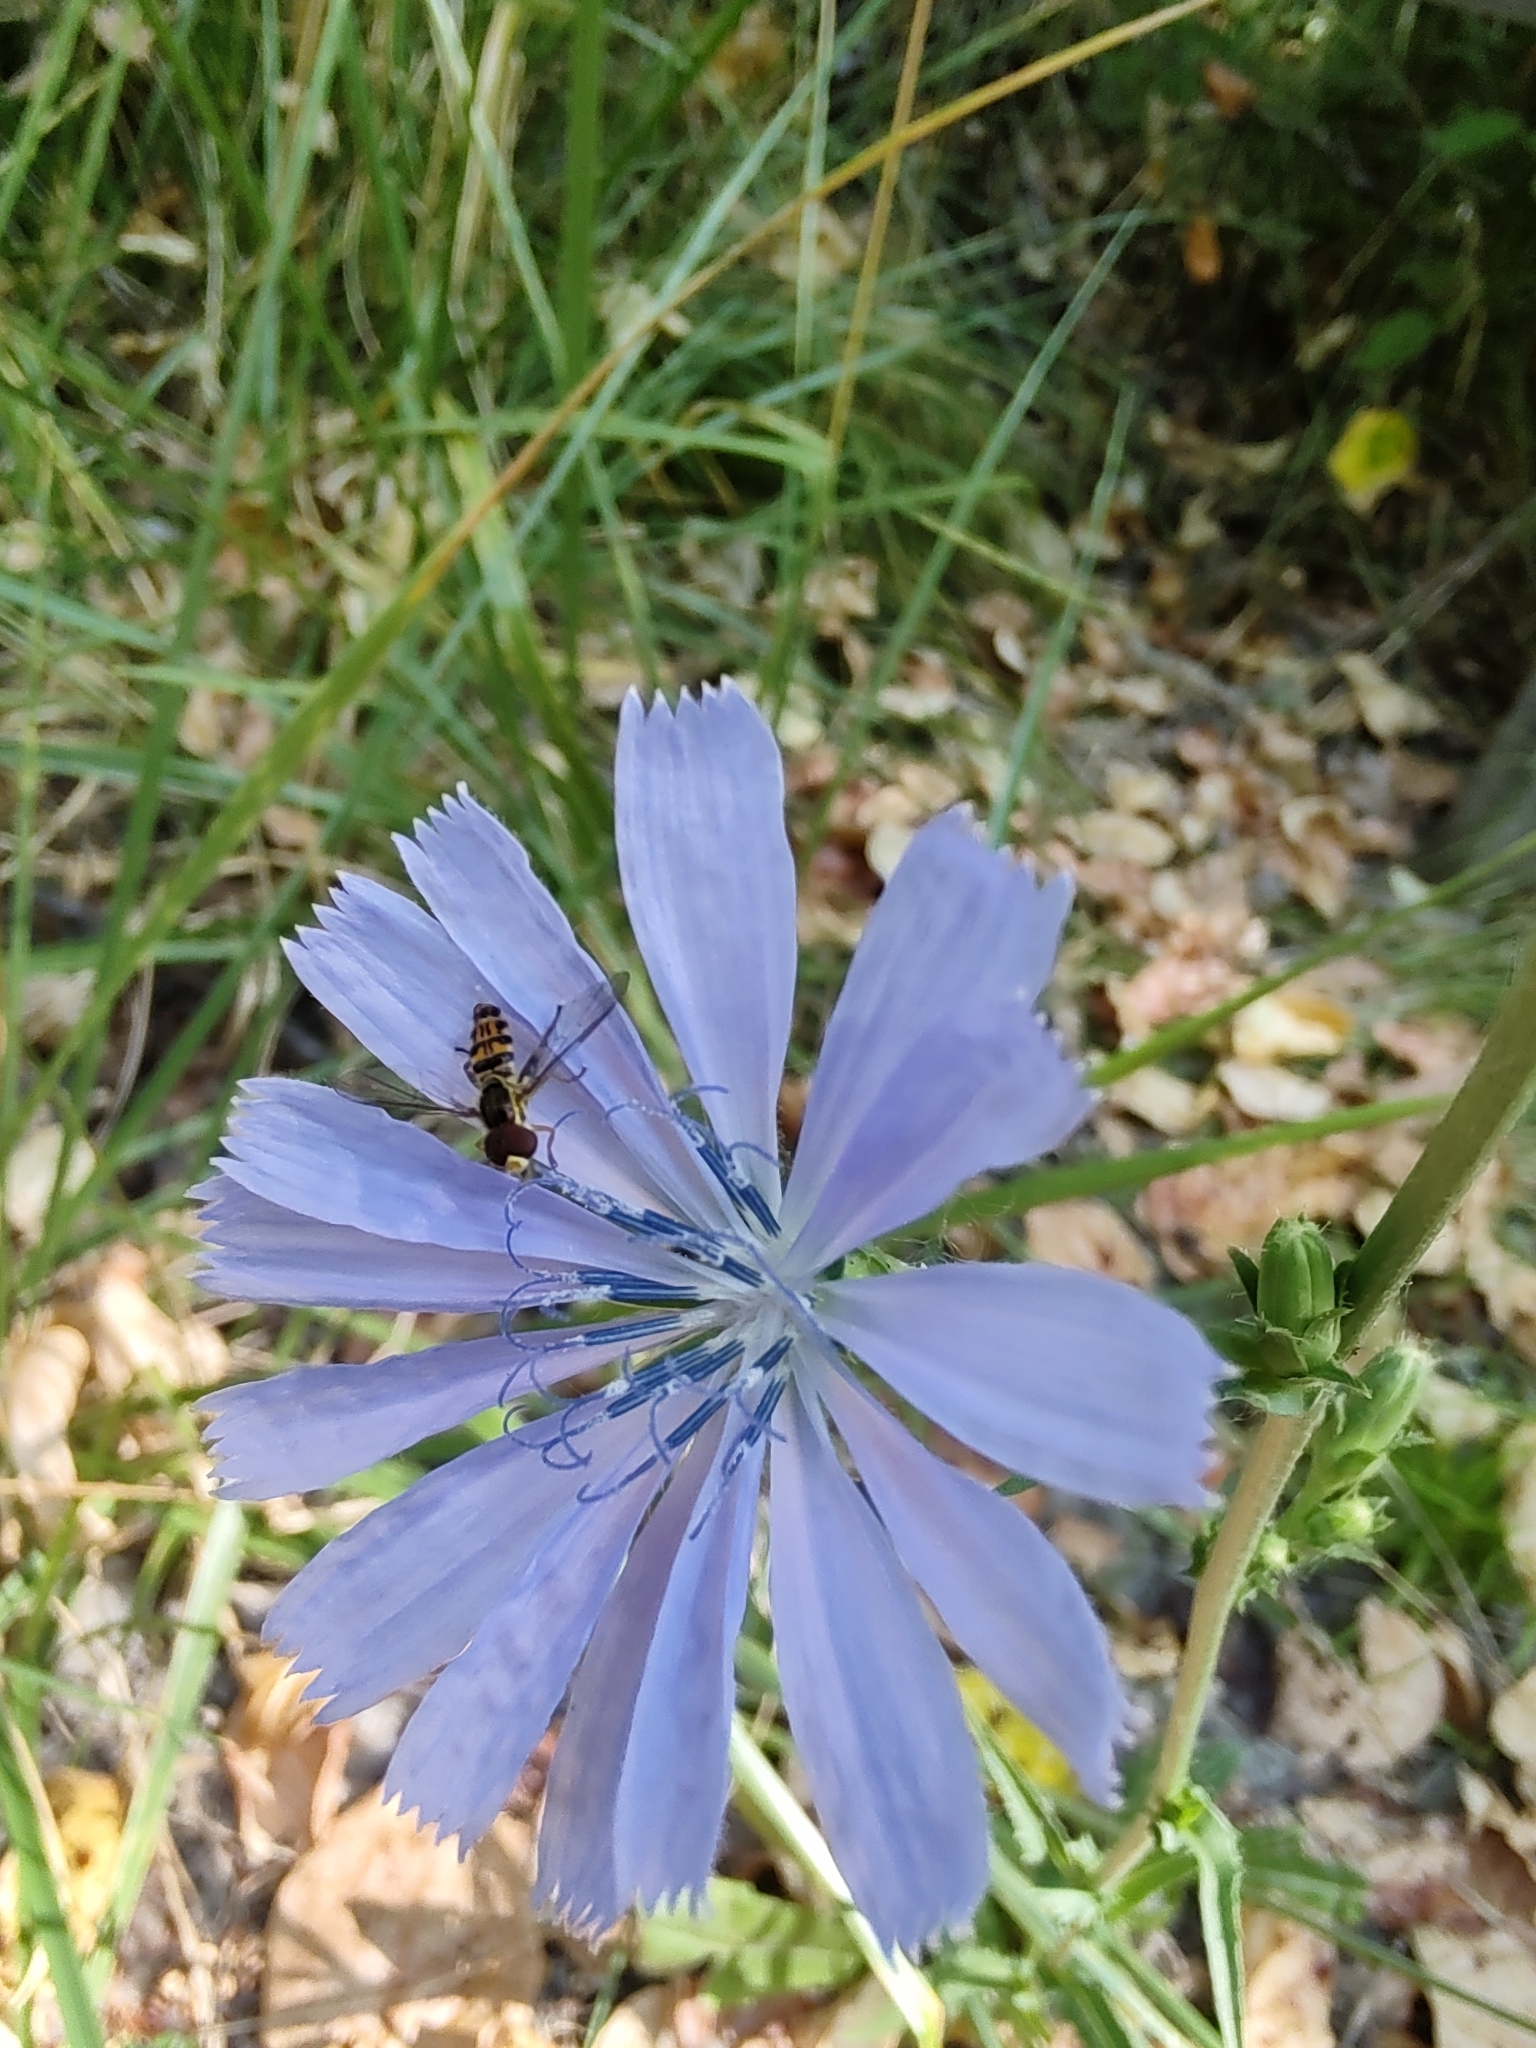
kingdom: Animalia
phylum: Arthropoda
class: Insecta
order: Diptera
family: Syrphidae
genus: Toxomerus
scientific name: Toxomerus occidentalis
